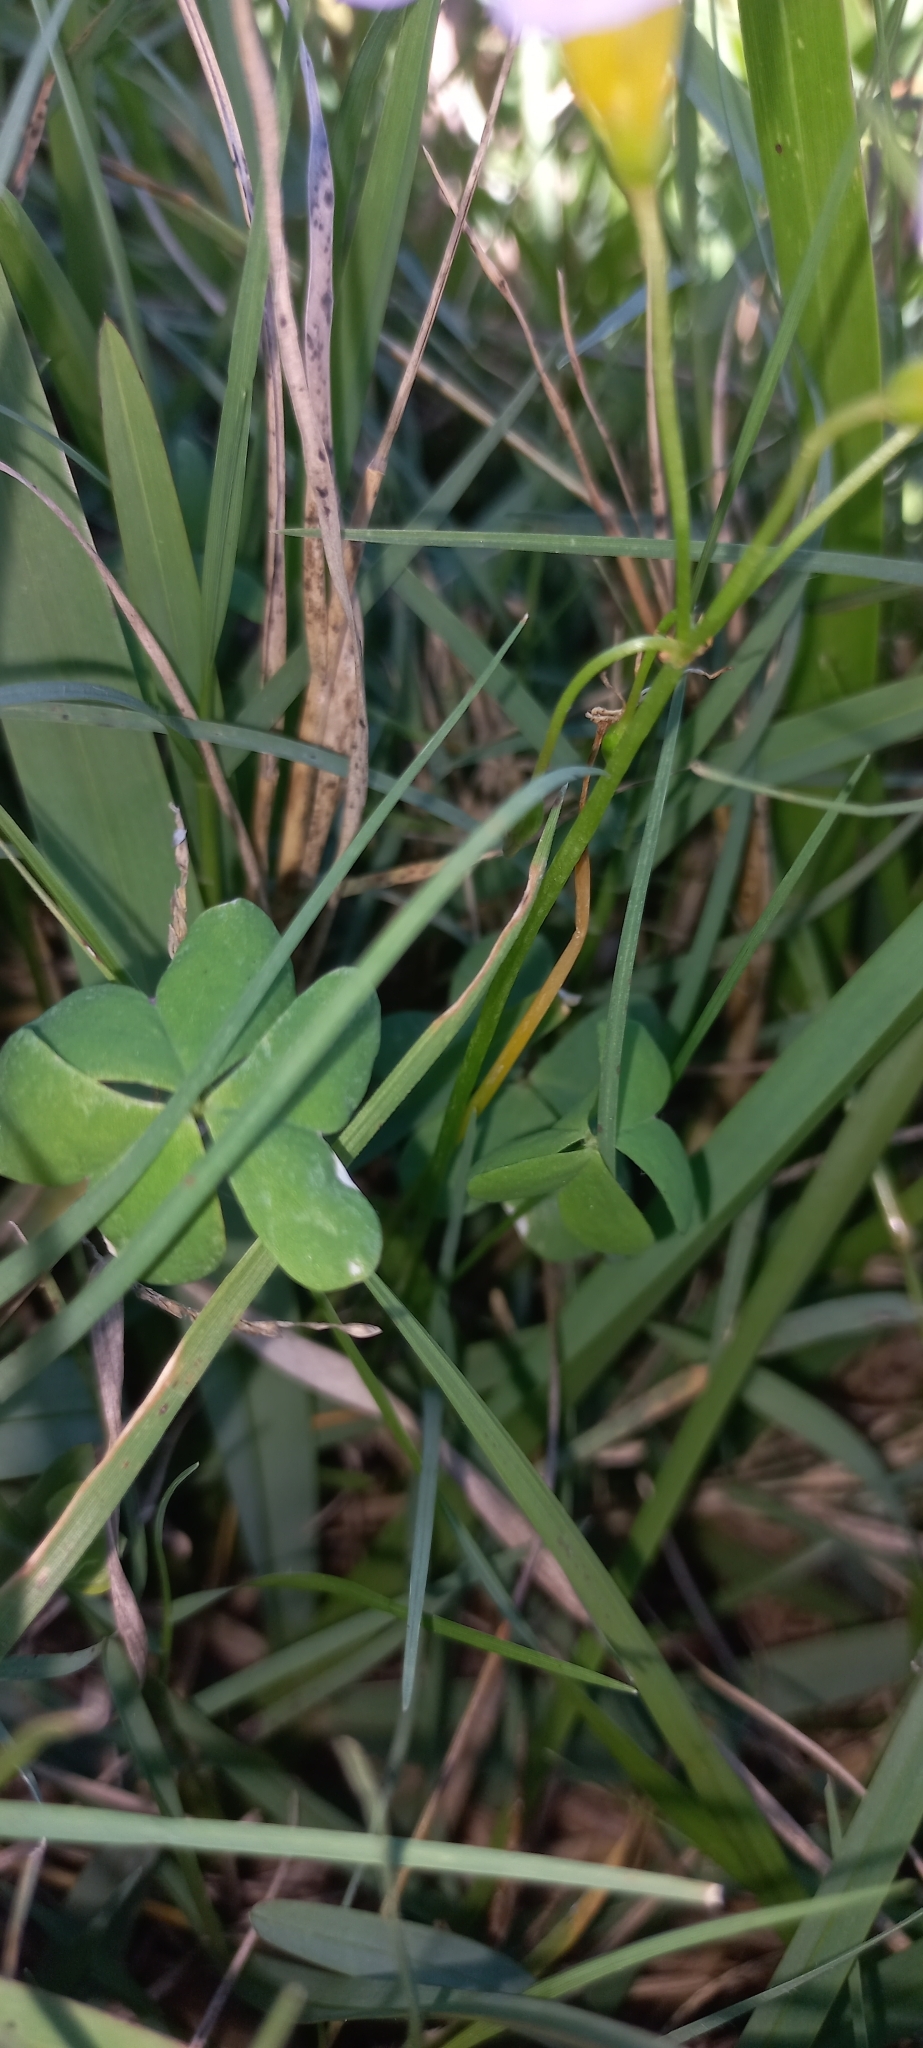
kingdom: Plantae
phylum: Tracheophyta
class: Magnoliopsida
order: Oxalidales
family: Oxalidaceae
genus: Oxalis
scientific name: Oxalis caprina
